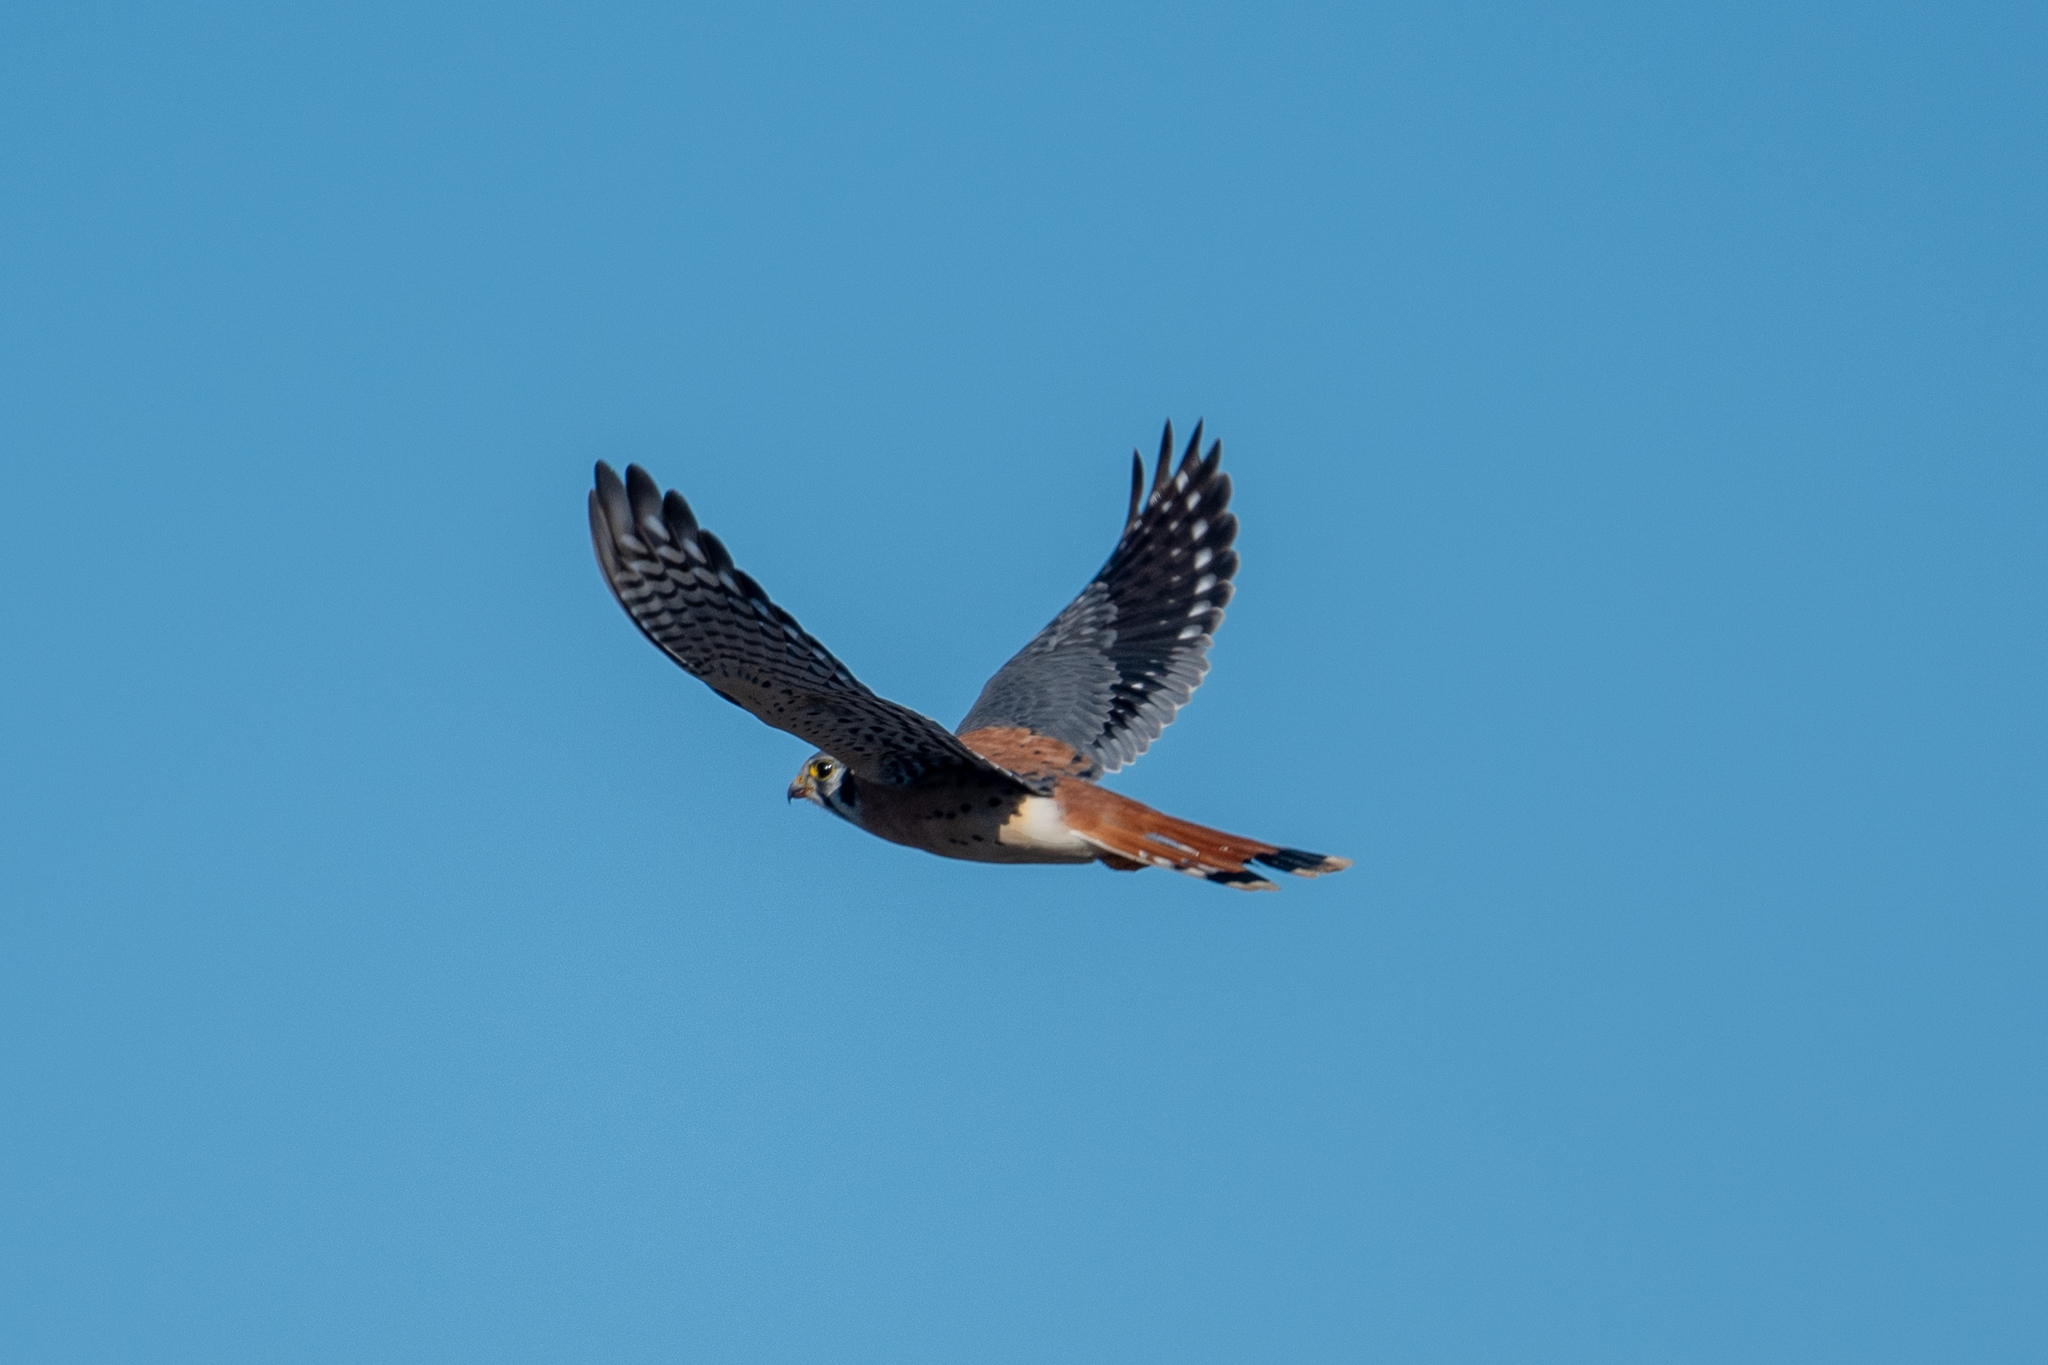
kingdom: Animalia
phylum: Chordata
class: Aves
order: Falconiformes
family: Falconidae
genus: Falco
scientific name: Falco sparverius
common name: American kestrel
